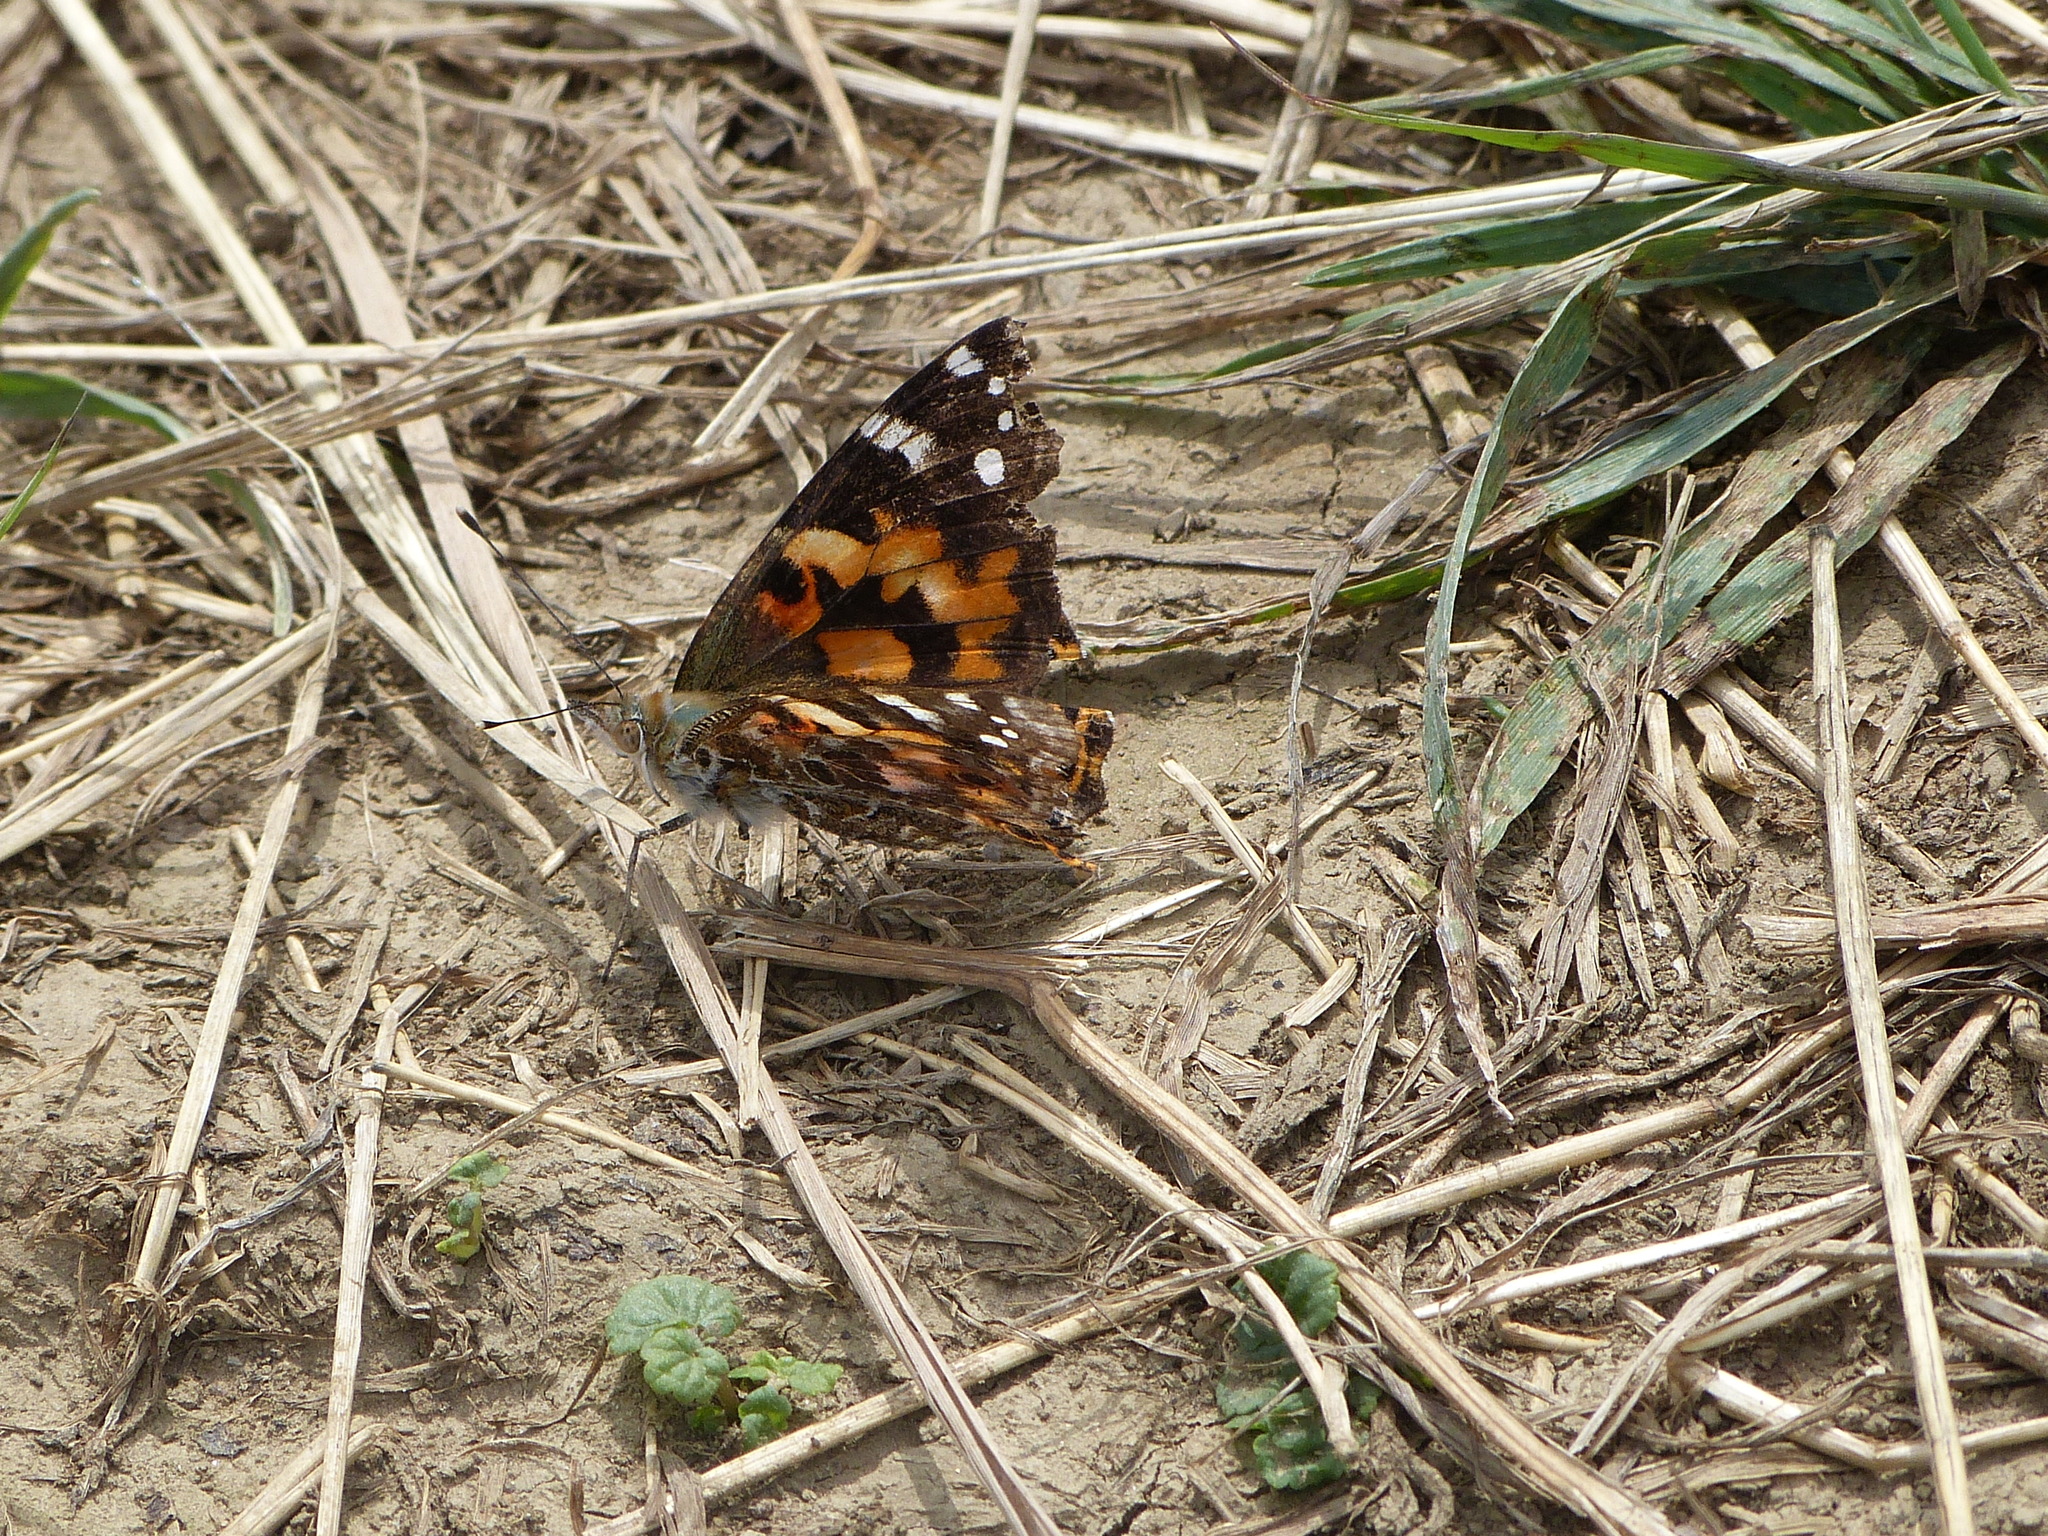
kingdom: Animalia
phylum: Arthropoda
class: Insecta
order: Lepidoptera
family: Nymphalidae
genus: Vanessa
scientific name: Vanessa cardui
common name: Painted lady
